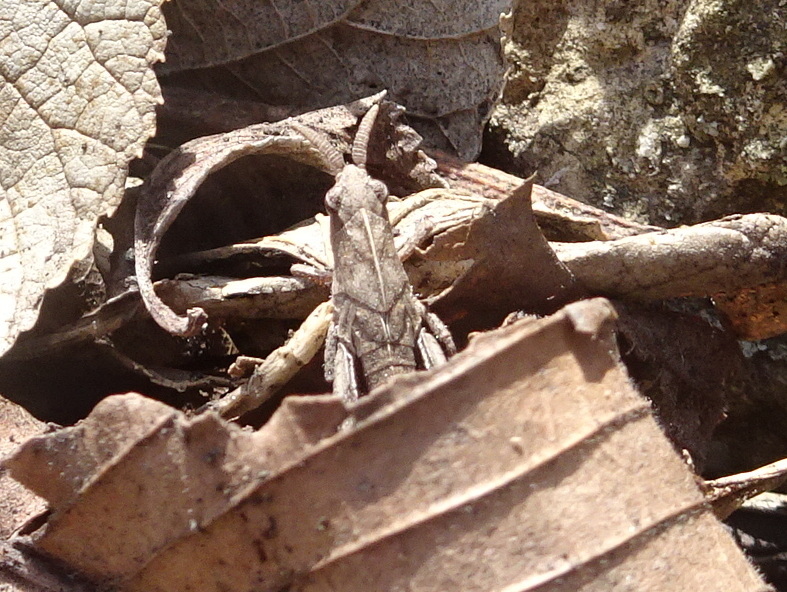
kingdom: Animalia
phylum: Arthropoda
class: Insecta
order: Orthoptera
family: Acrididae
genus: Chortophaga
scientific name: Chortophaga viridifasciata
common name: Green-striped grasshopper
